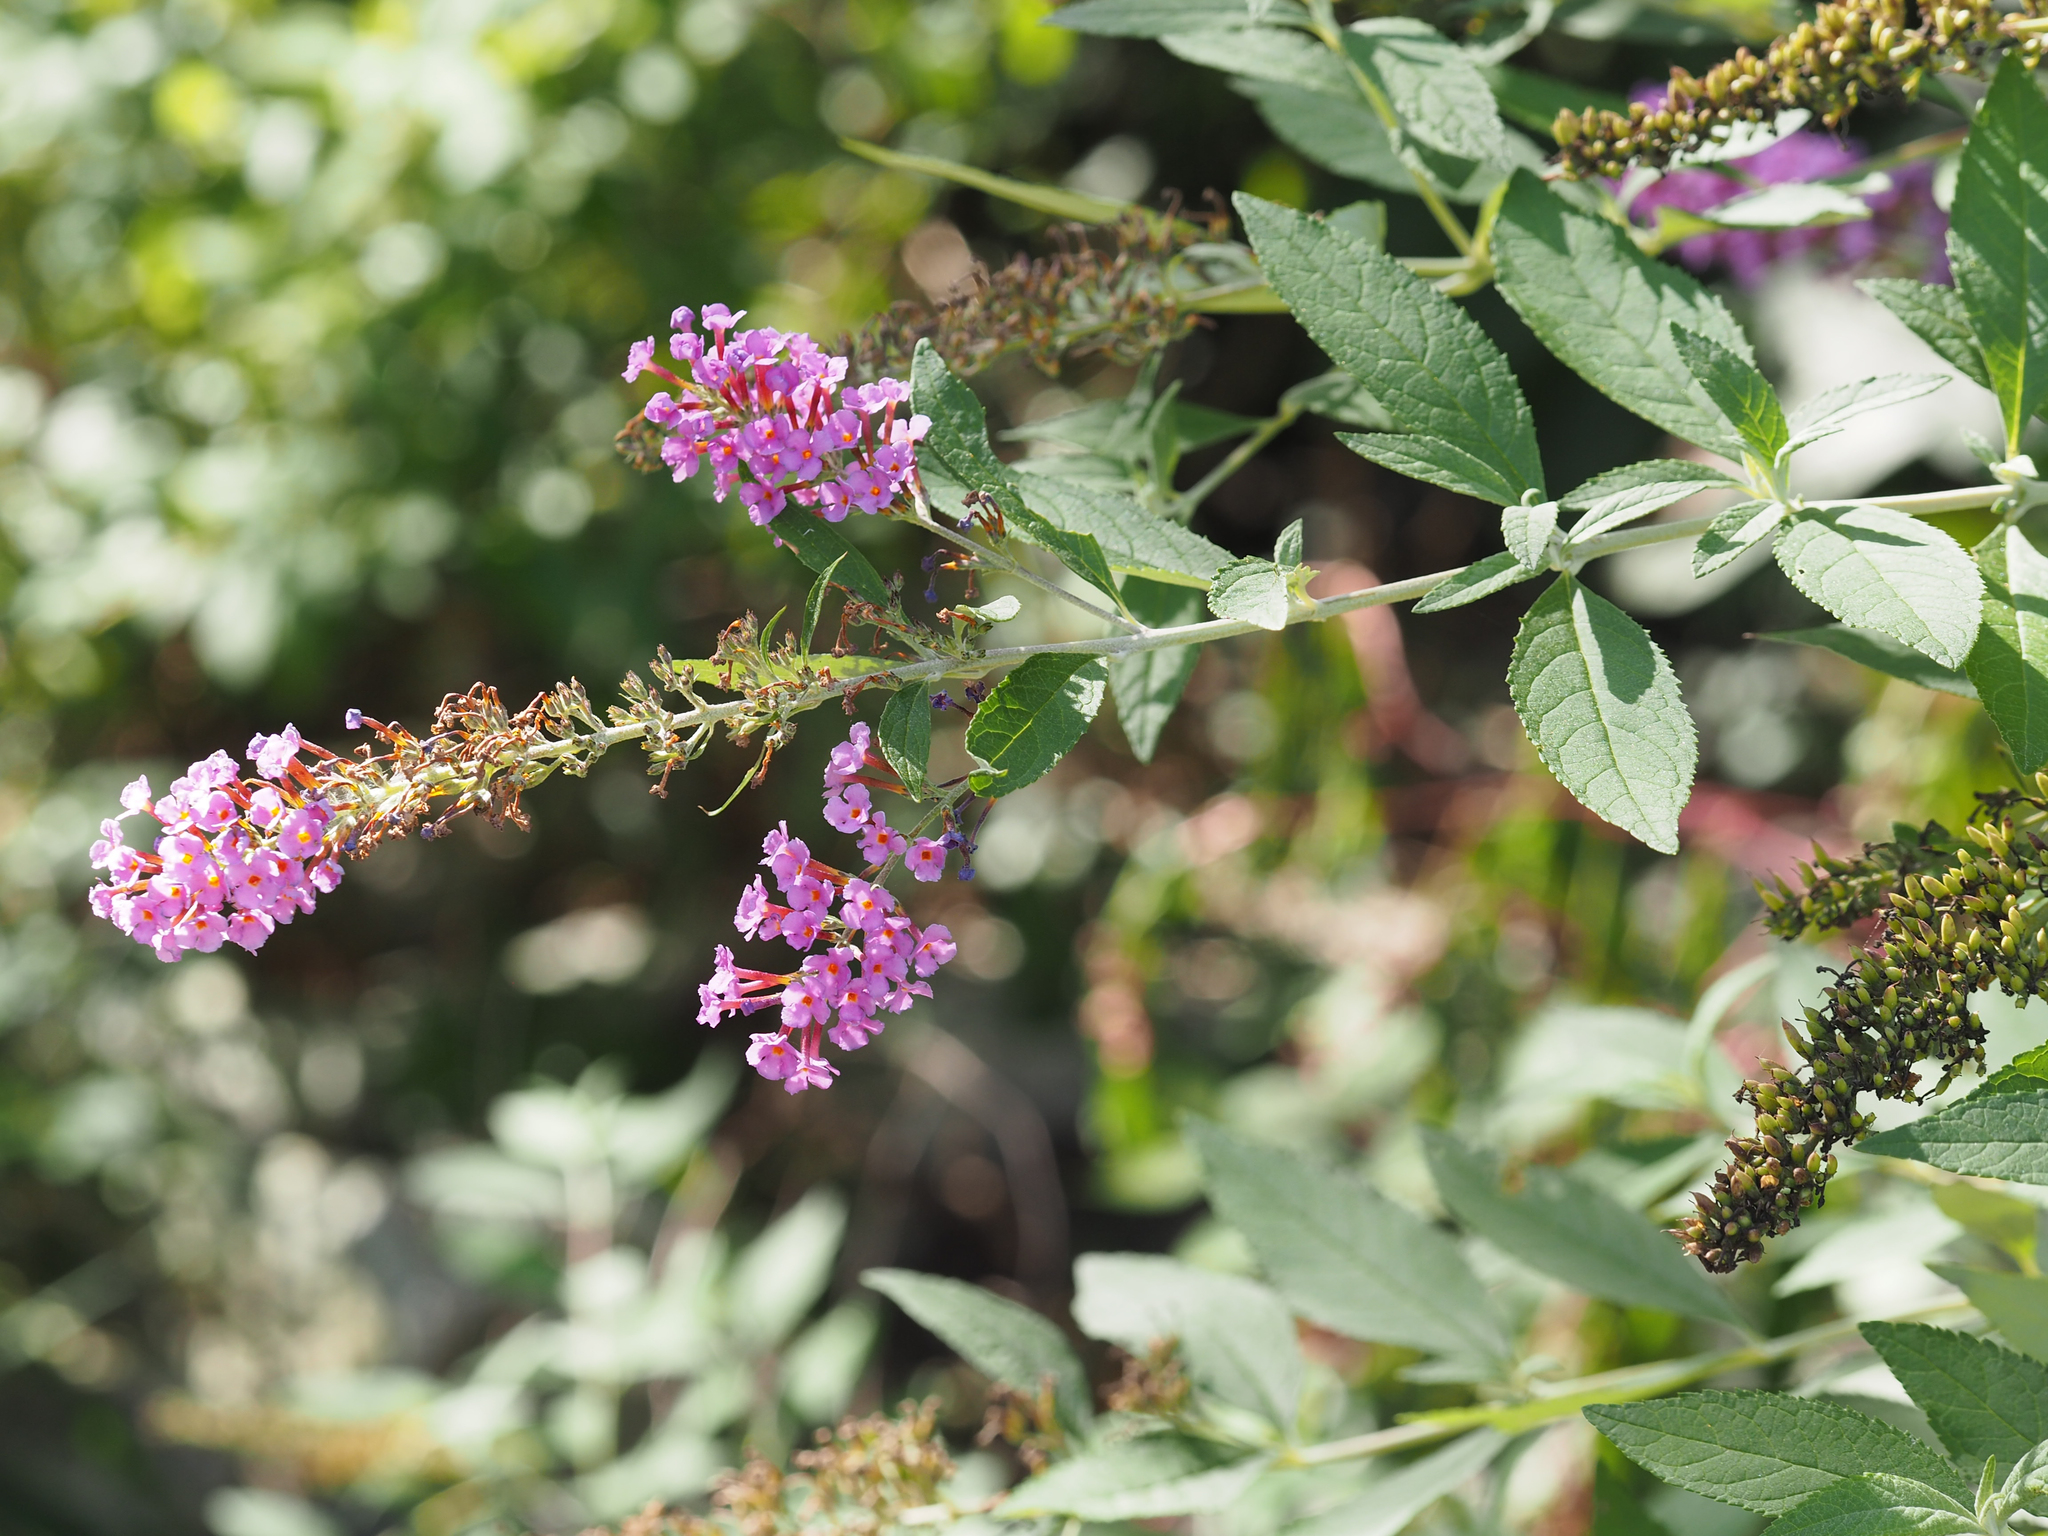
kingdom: Plantae
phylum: Tracheophyta
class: Magnoliopsida
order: Lamiales
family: Scrophulariaceae
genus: Buddleja
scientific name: Buddleja davidii
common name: Butterfly-bush
